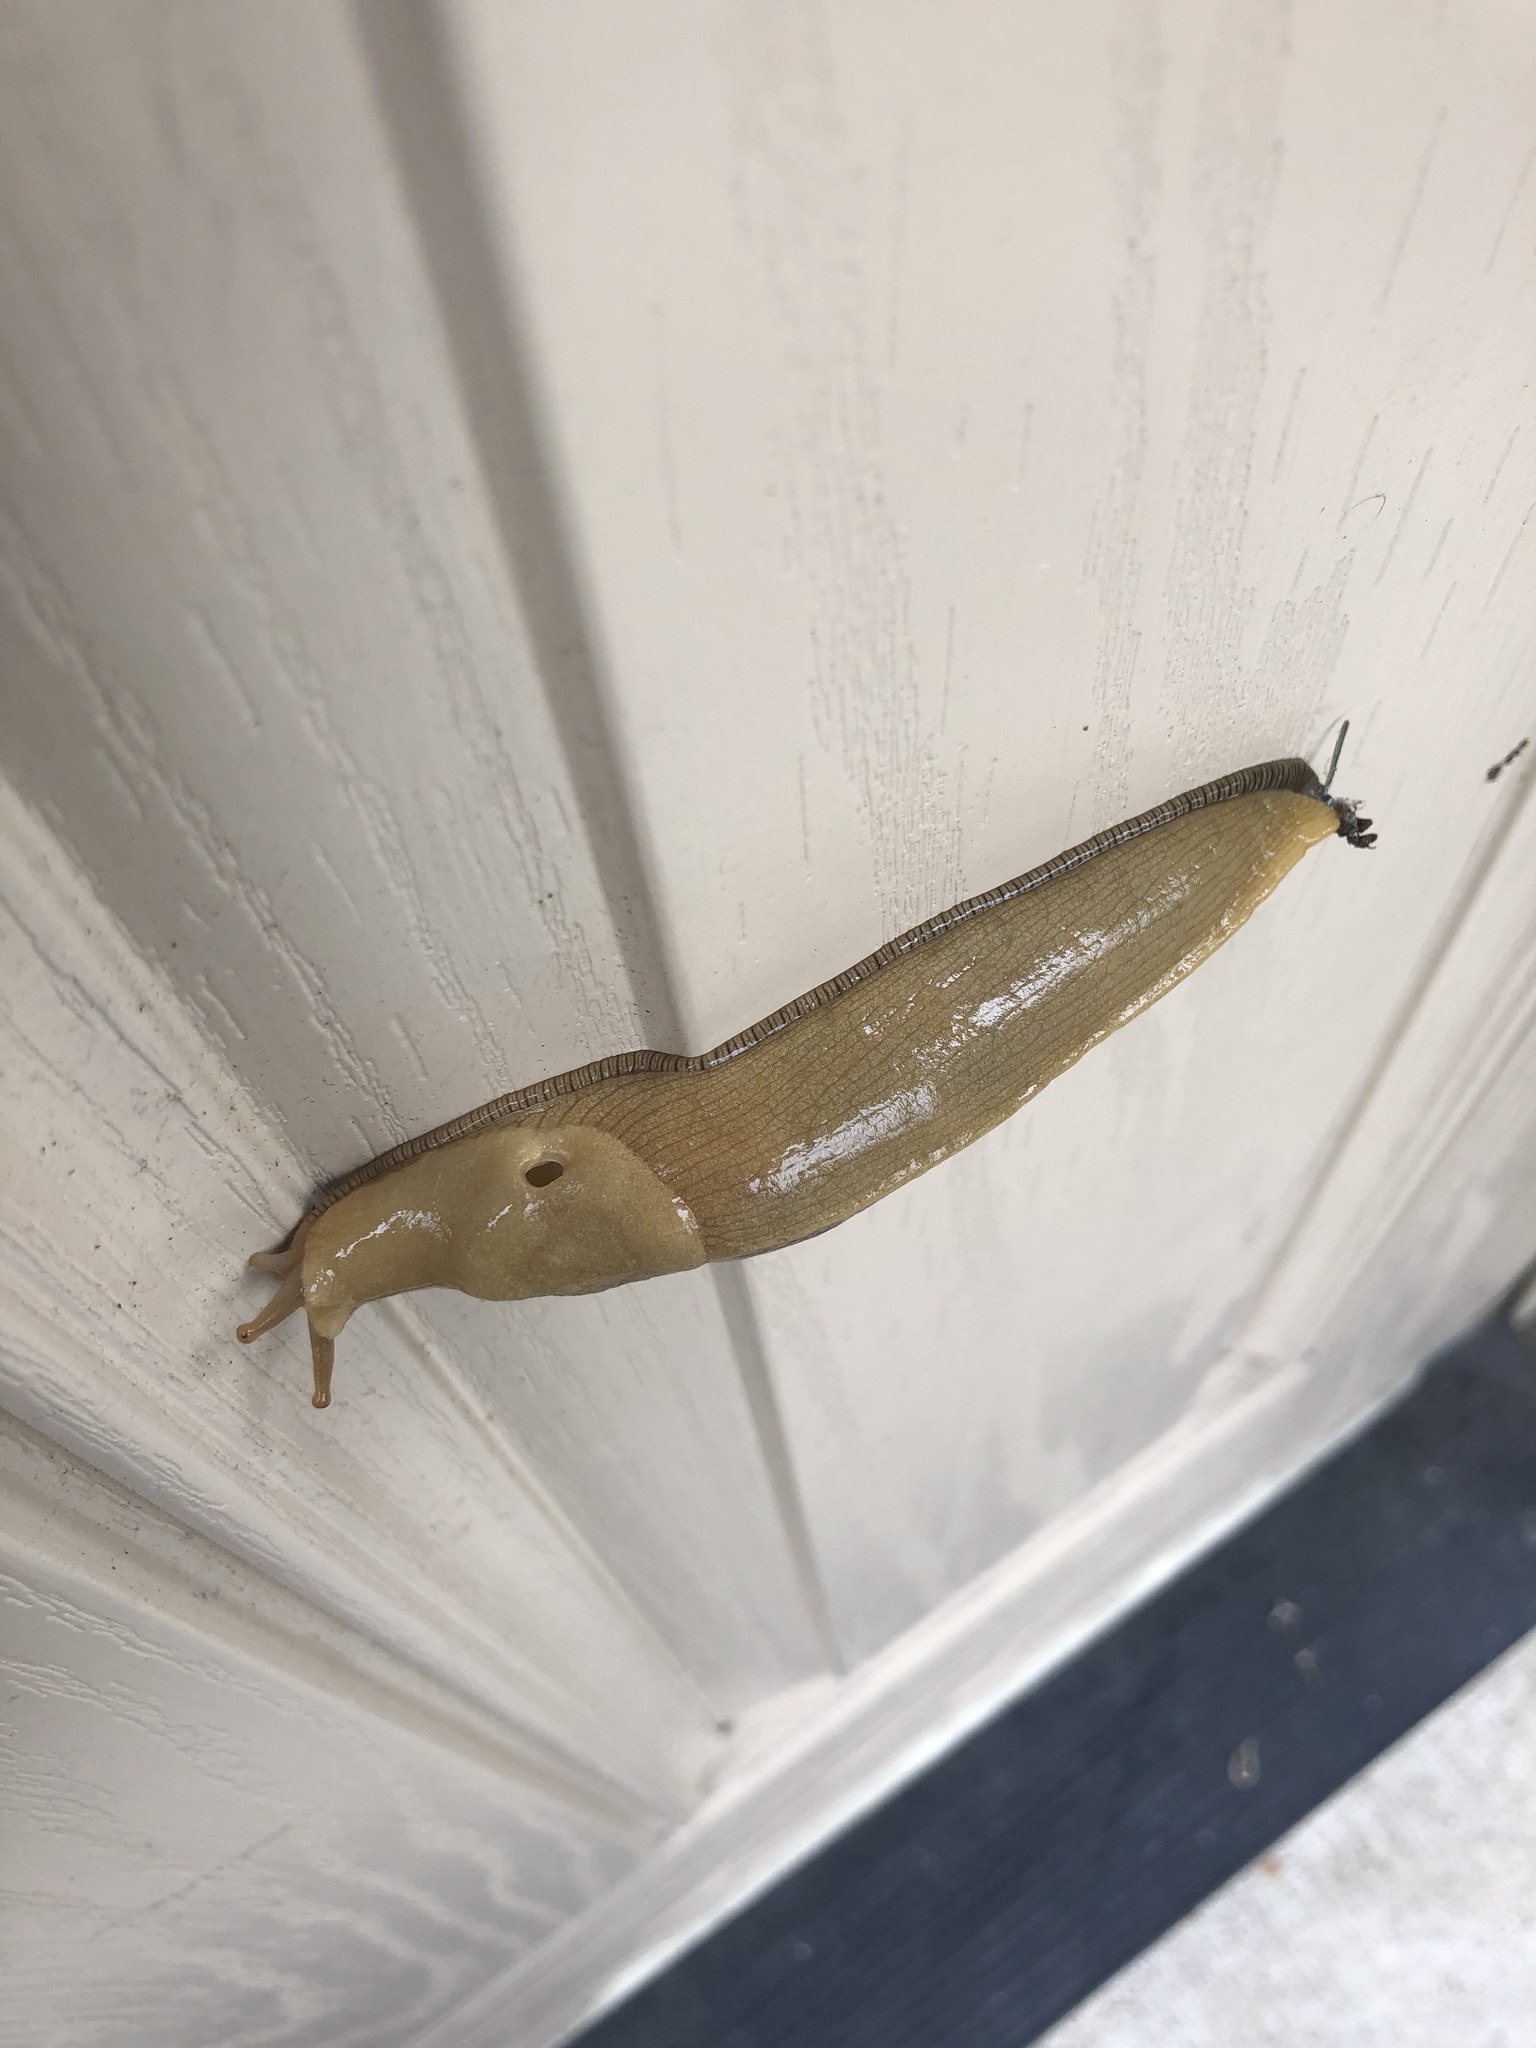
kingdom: Animalia
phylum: Mollusca
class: Gastropoda
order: Stylommatophora
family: Ariolimacidae
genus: Ariolimax
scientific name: Ariolimax columbianus
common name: Pacific banana slug
